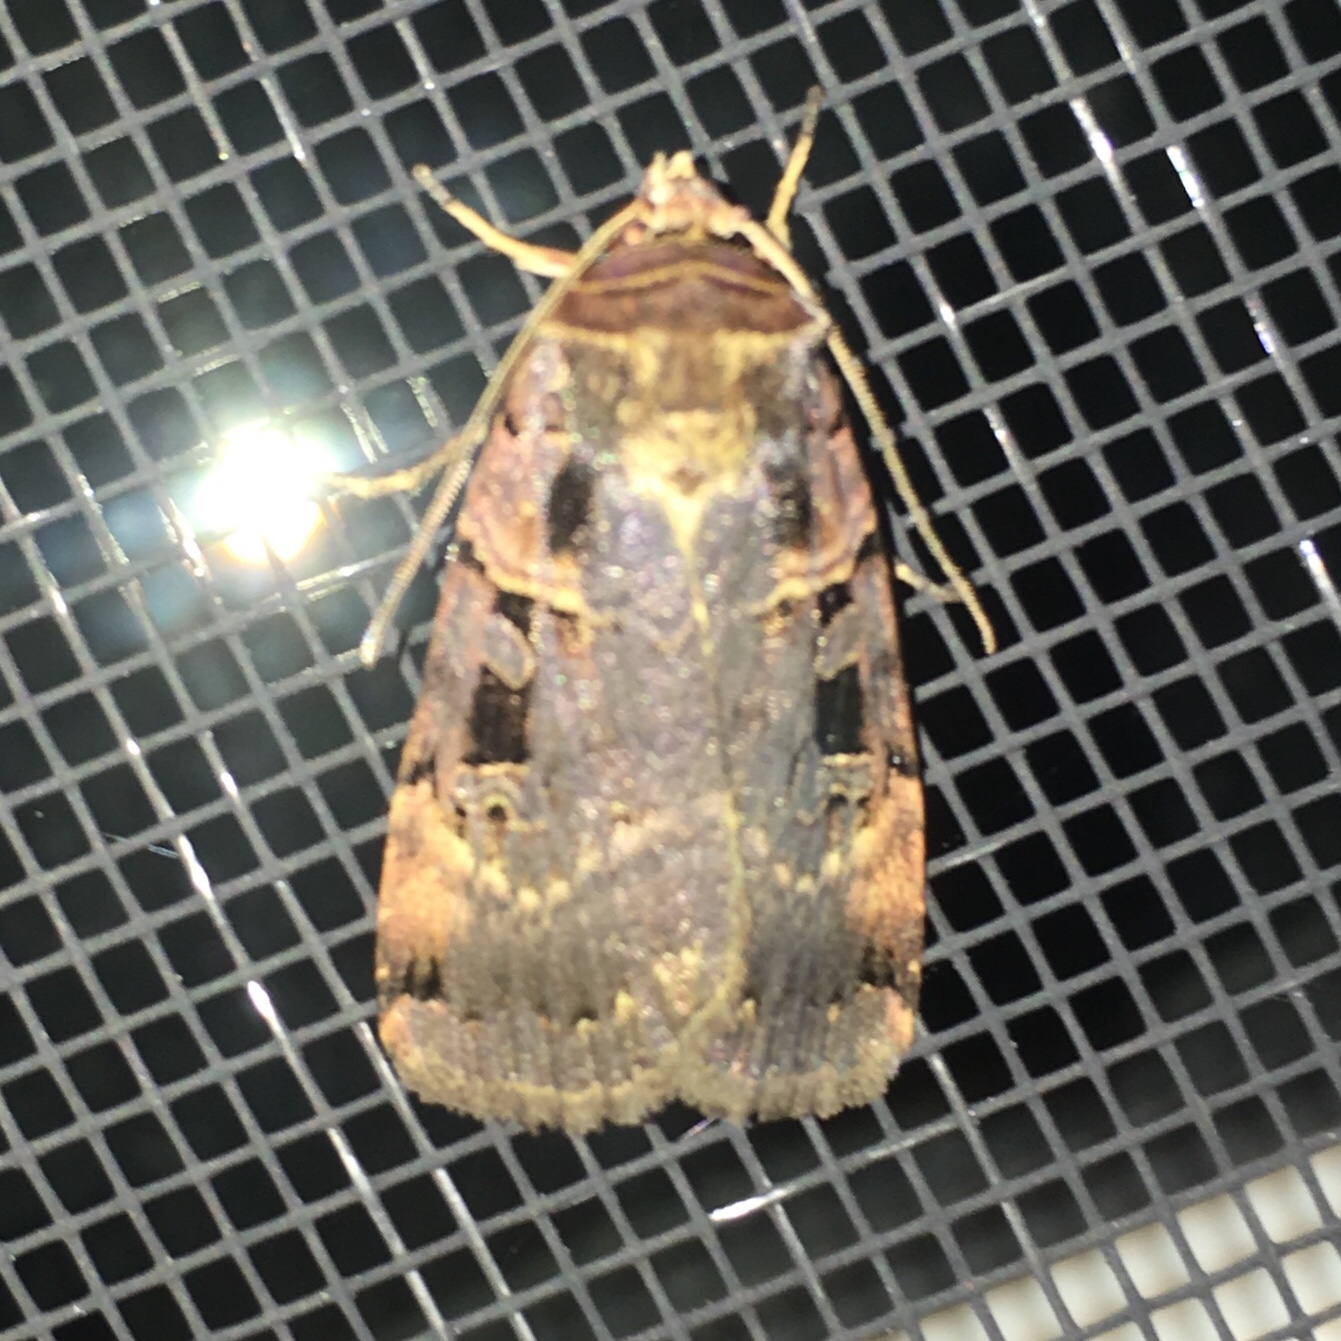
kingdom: Animalia
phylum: Arthropoda
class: Insecta
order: Lepidoptera
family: Noctuidae
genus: Pseudohermonassa
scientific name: Pseudohermonassa bicarnea
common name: Pink spotted dart
